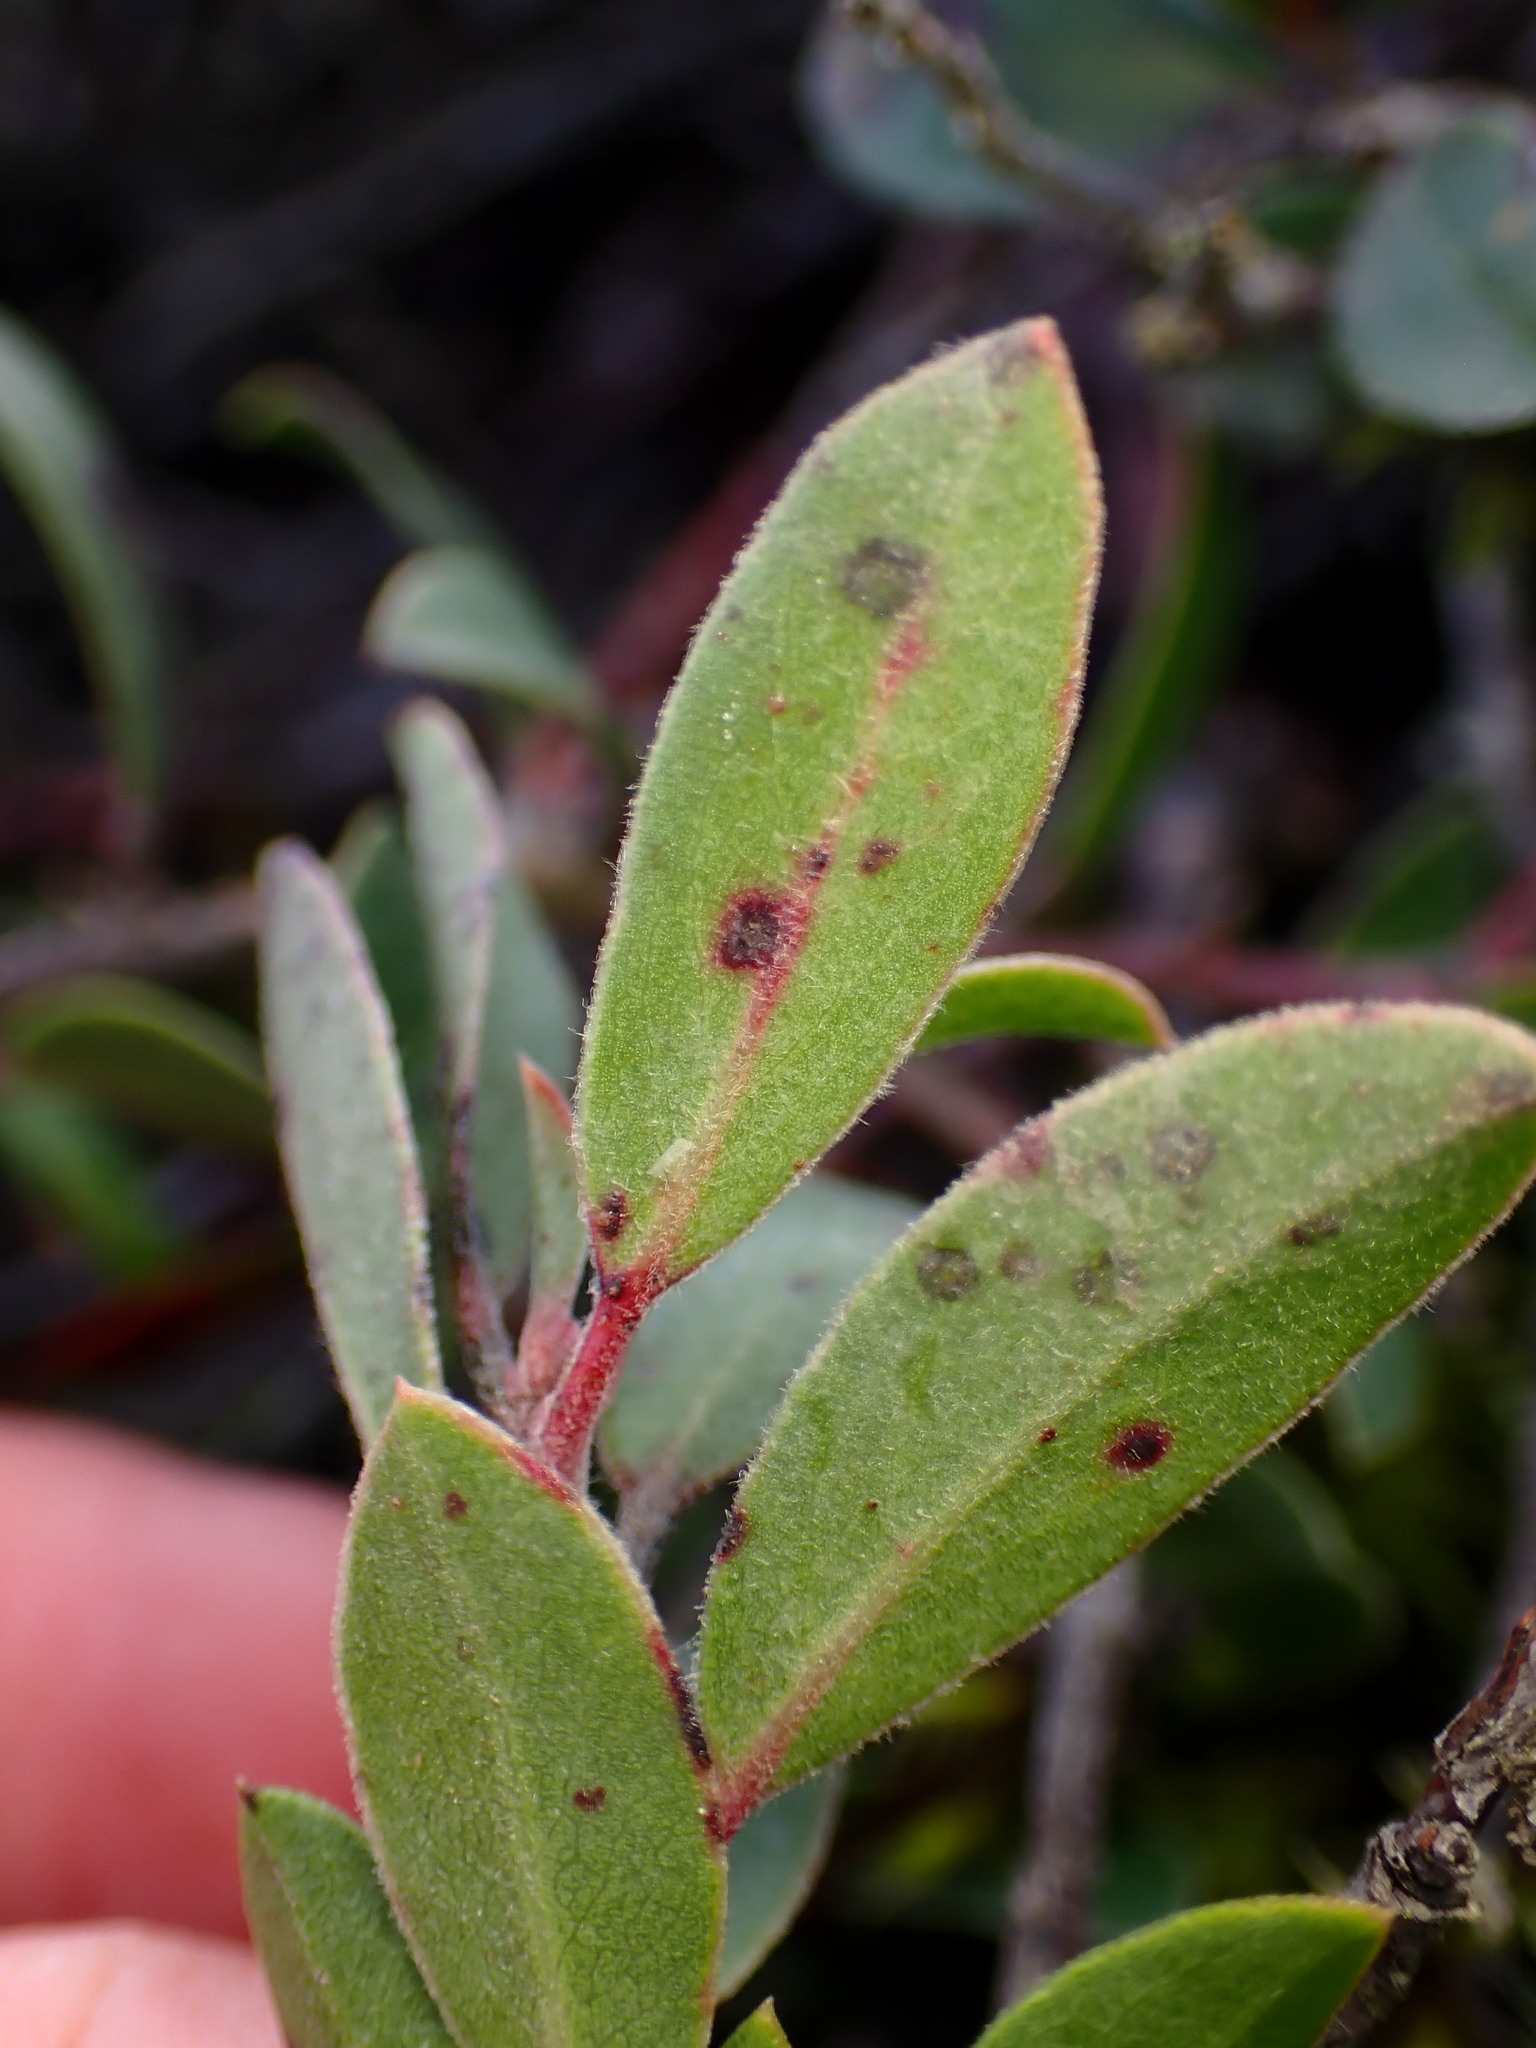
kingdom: Plantae
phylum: Tracheophyta
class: Magnoliopsida
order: Ericales
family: Ericaceae
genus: Arctostaphylos
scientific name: Arctostaphylos uva-ursi
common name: Bearberry
